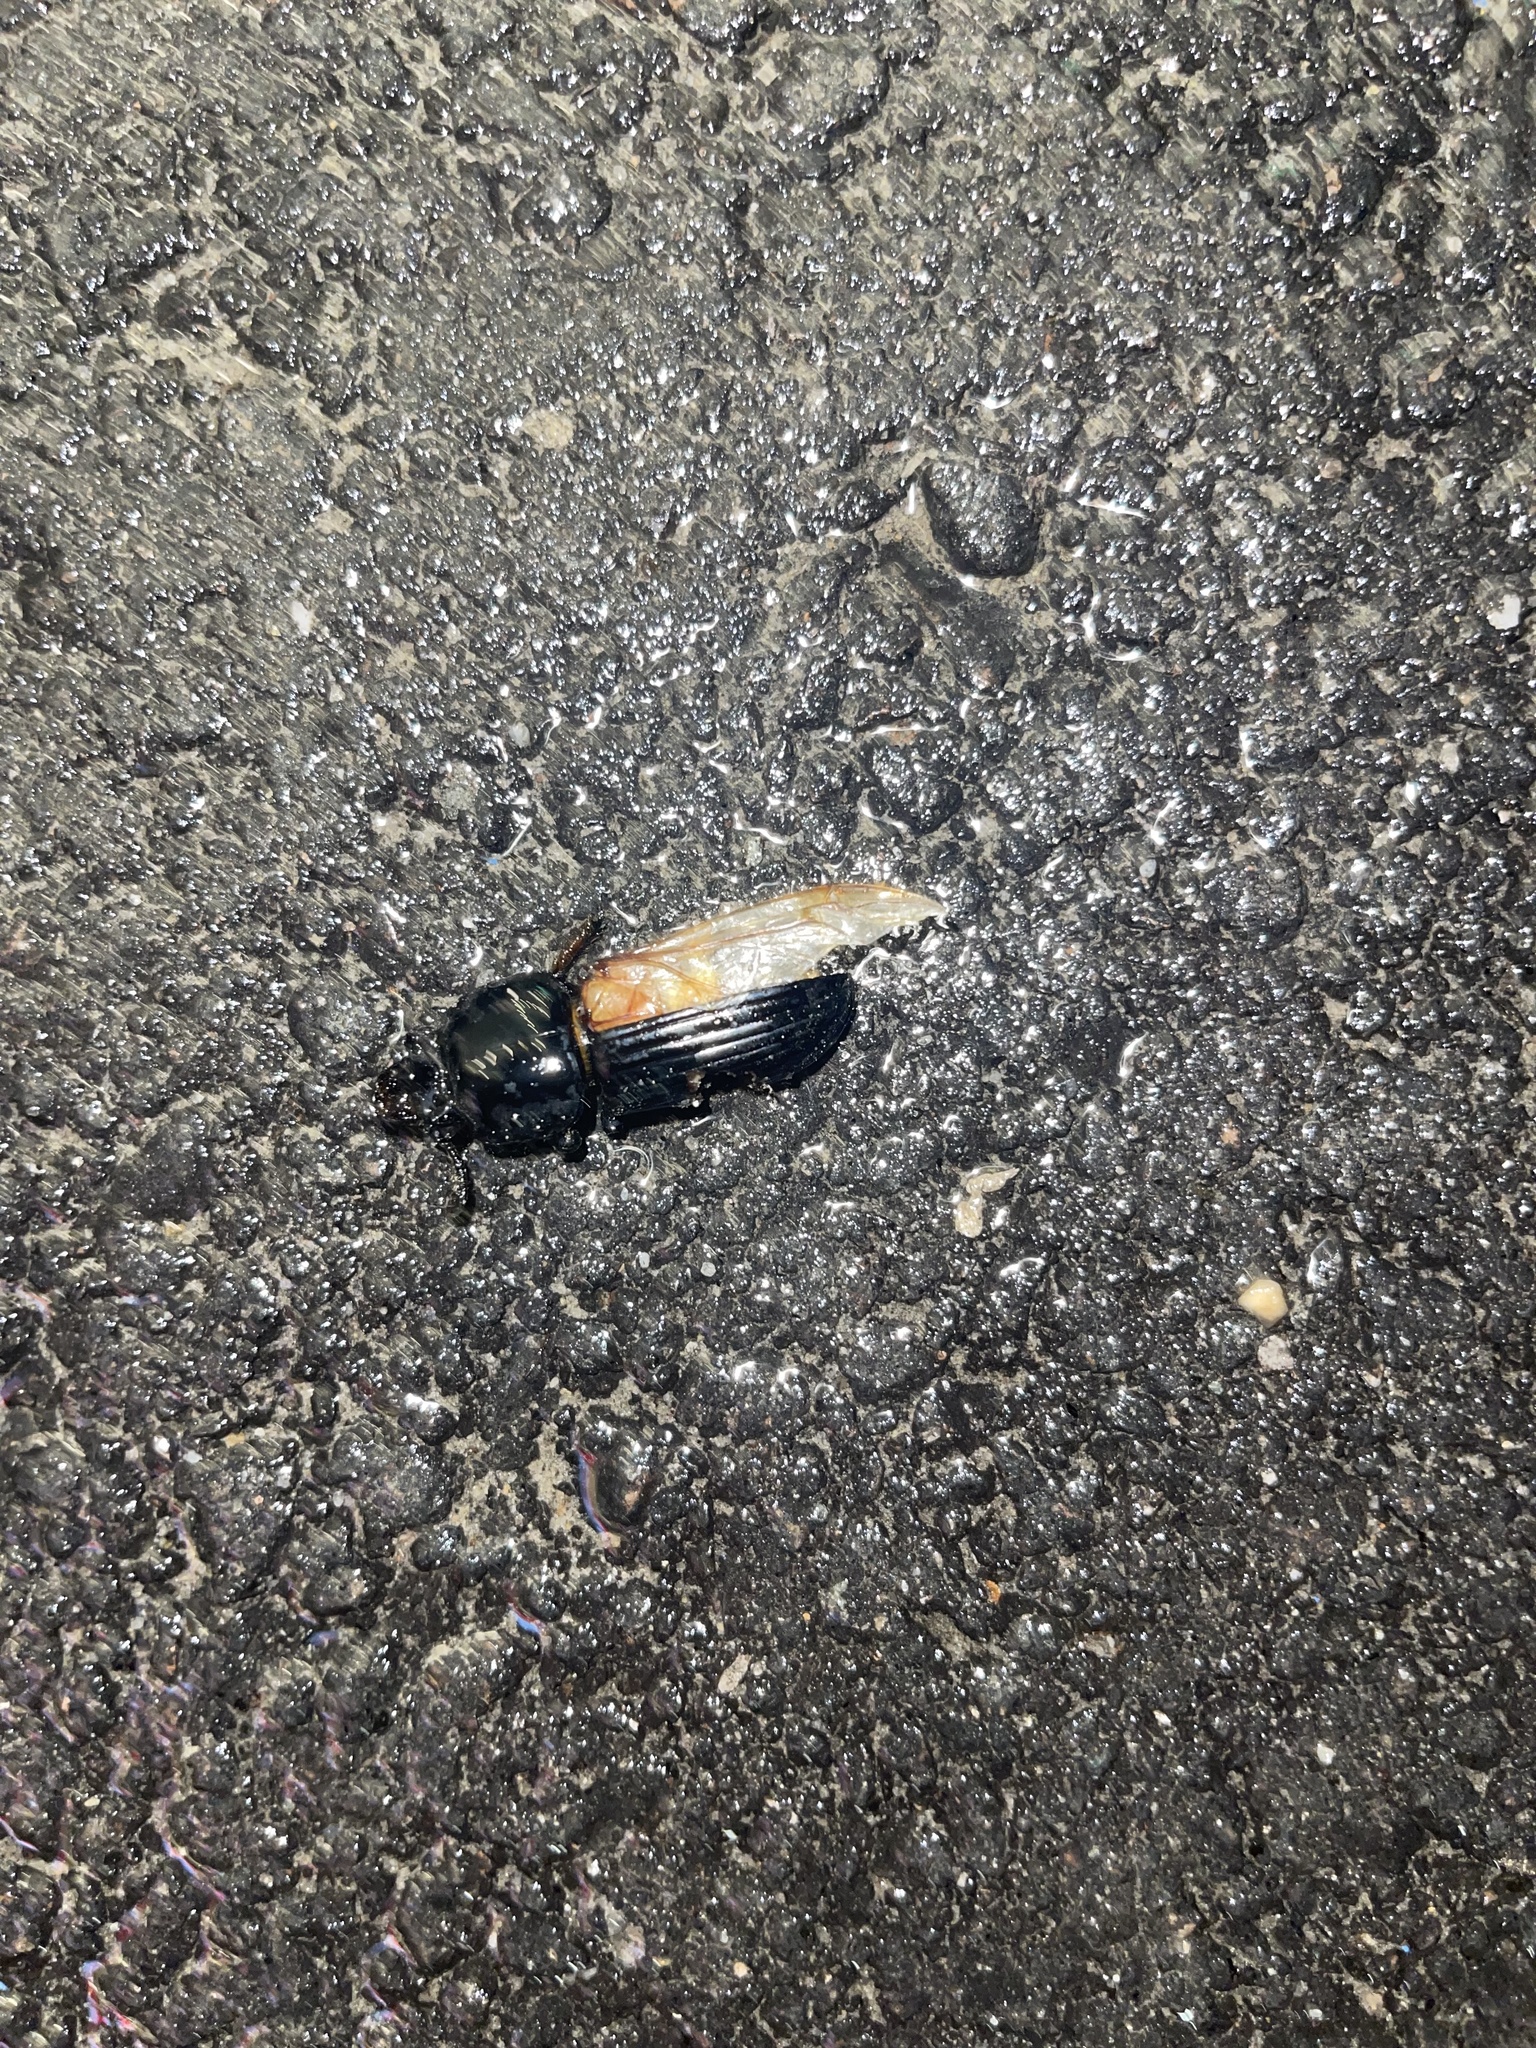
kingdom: Animalia
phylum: Arthropoda
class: Insecta
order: Coleoptera
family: Passalidae
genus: Odontotaenius
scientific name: Odontotaenius disjunctus
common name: Patent leather beetle
